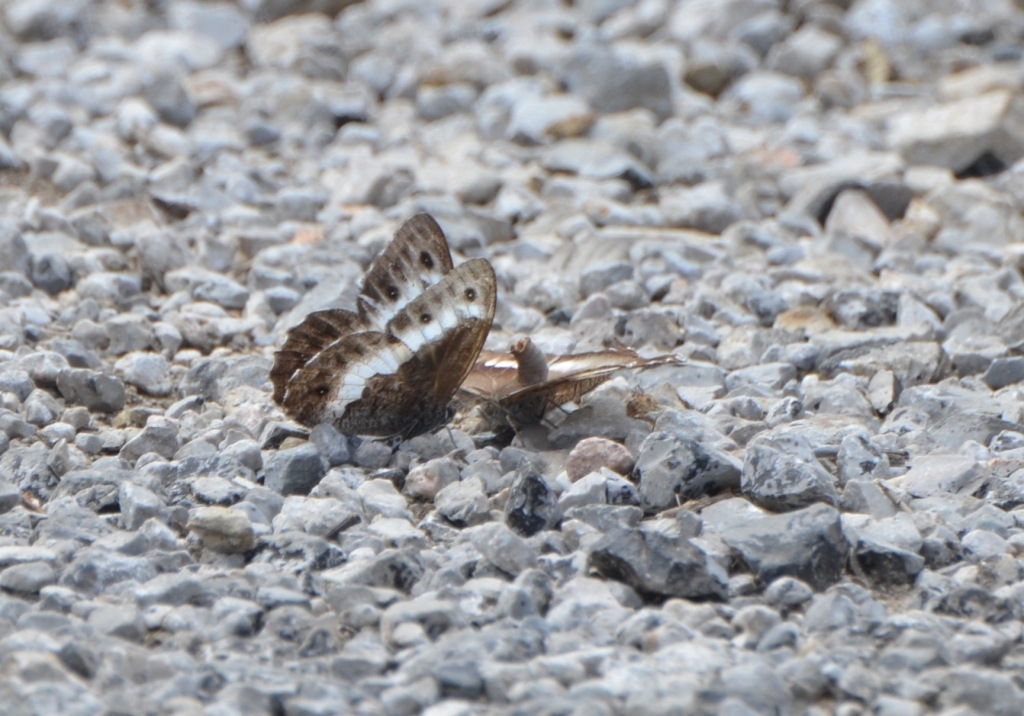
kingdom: Animalia
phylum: Arthropoda
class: Insecta
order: Lepidoptera
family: Nymphalidae
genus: Hipparchia
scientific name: Hipparchia ellena
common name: Algerian grayling
